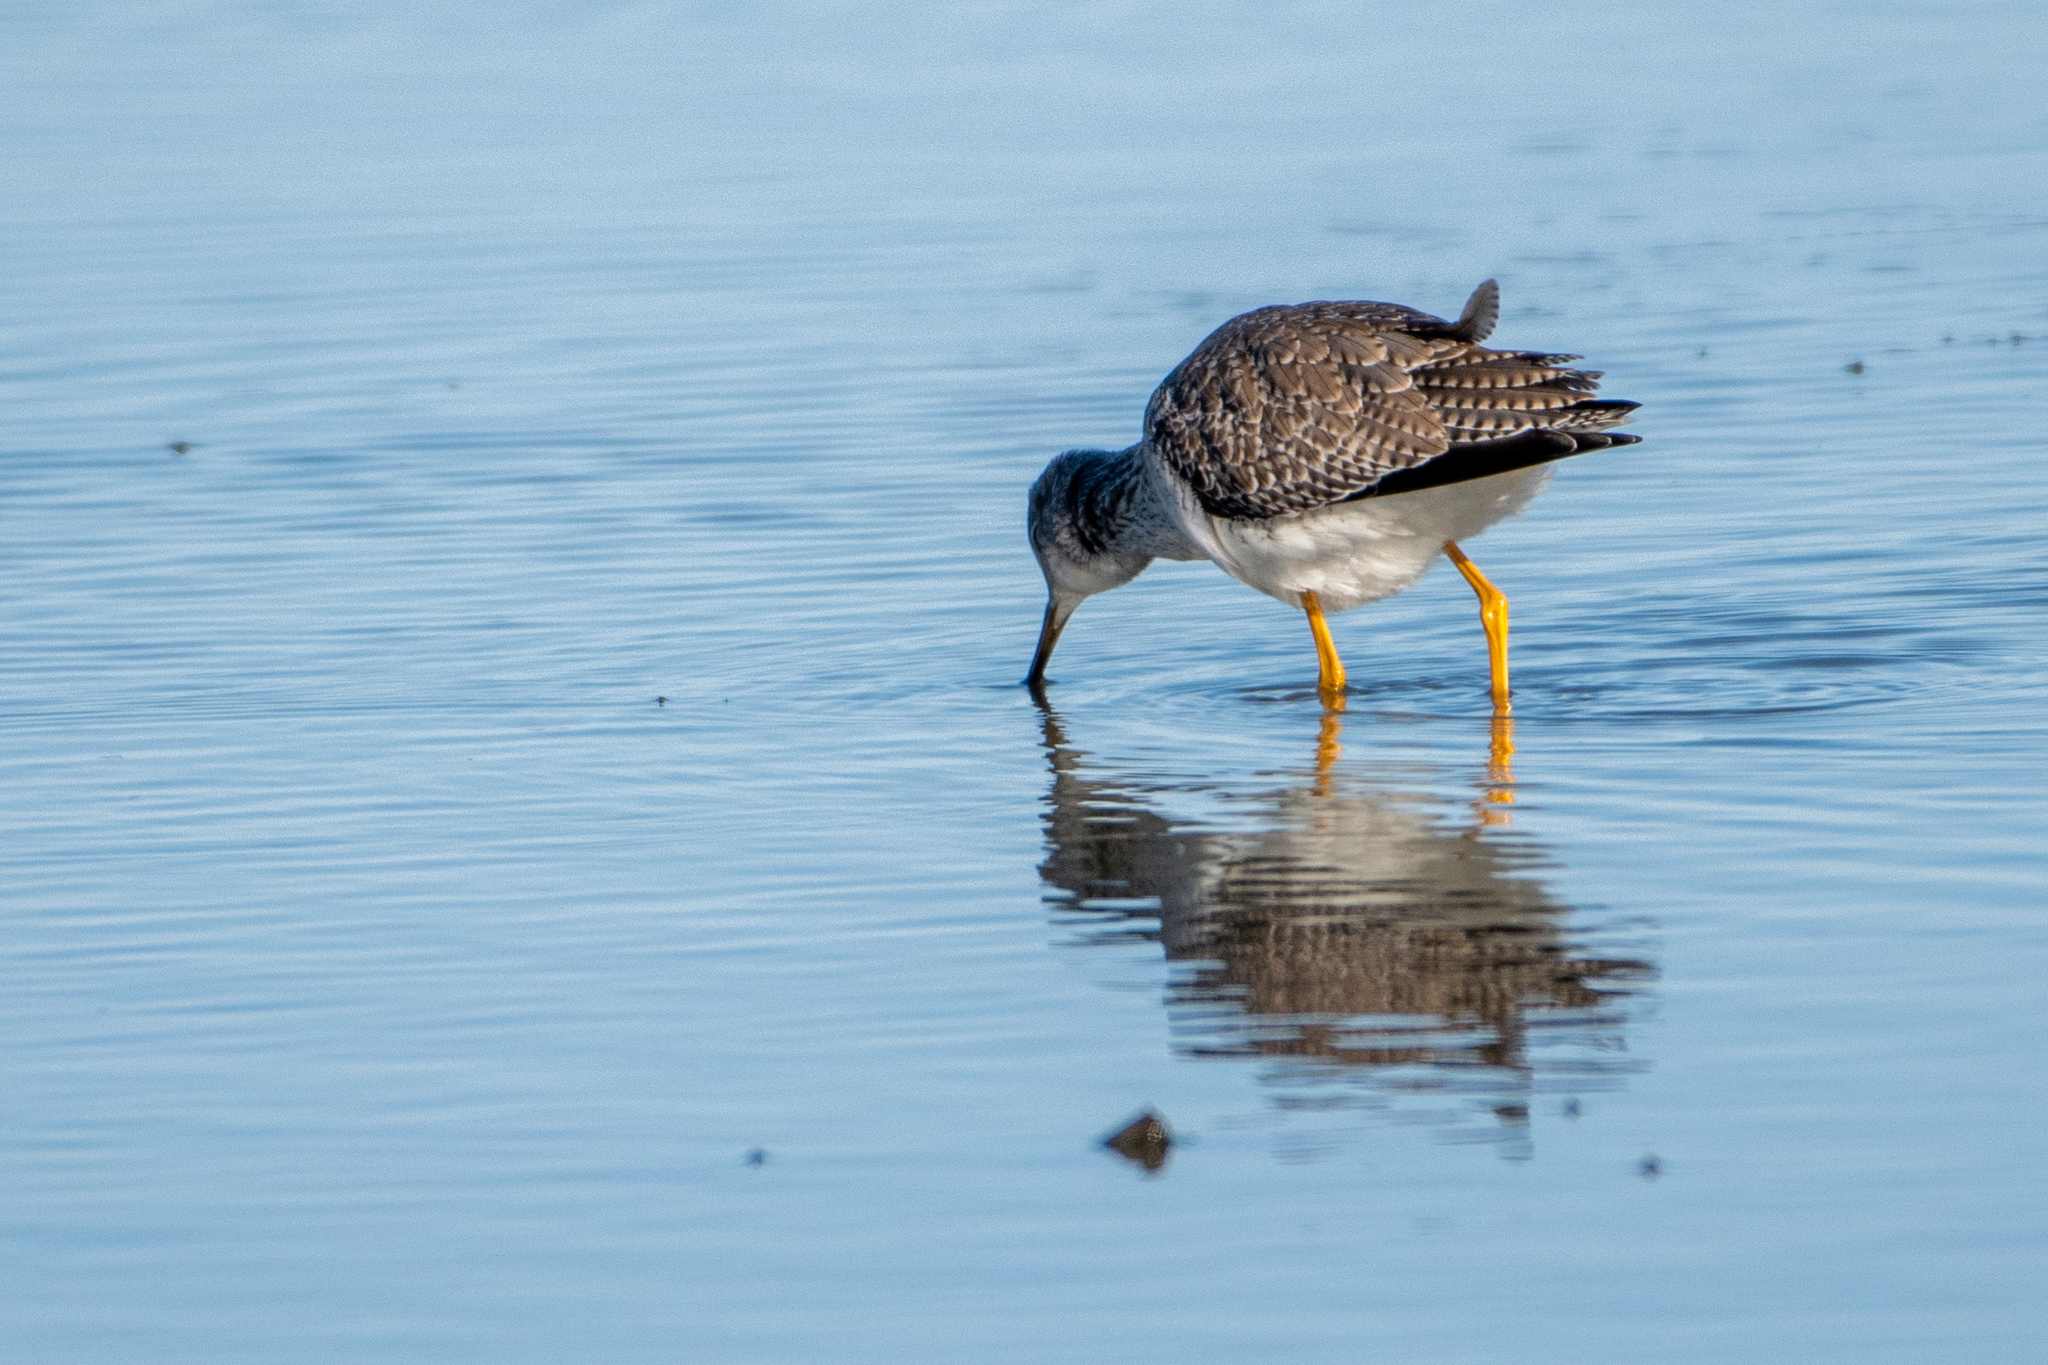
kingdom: Animalia
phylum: Chordata
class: Aves
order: Charadriiformes
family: Scolopacidae
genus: Tringa
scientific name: Tringa melanoleuca
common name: Greater yellowlegs
